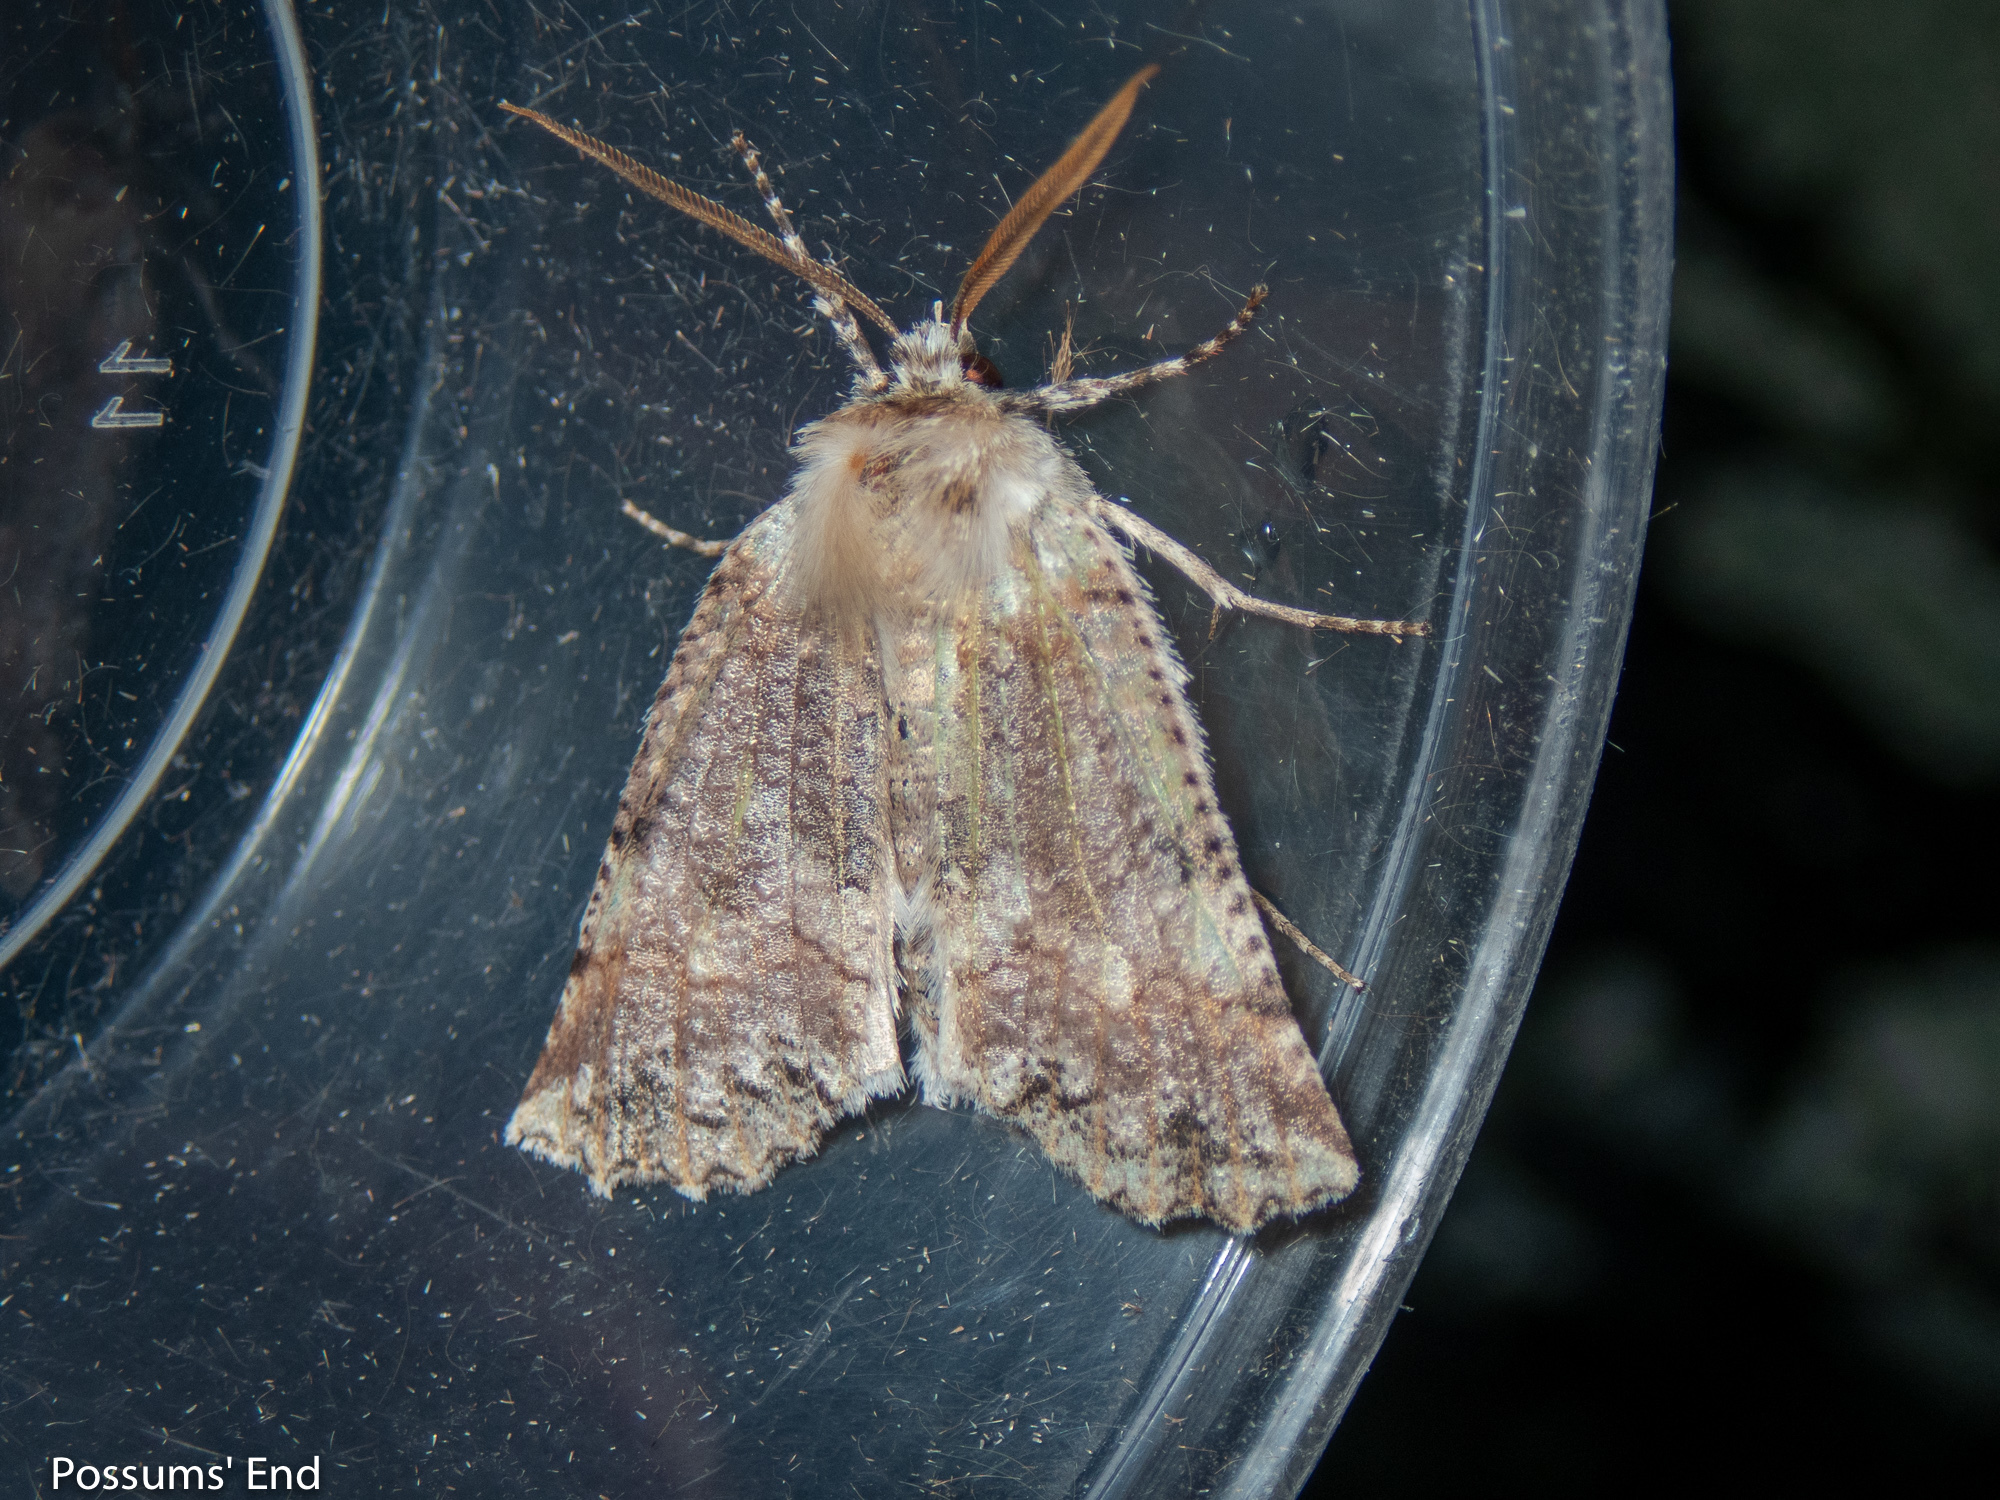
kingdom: Animalia
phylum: Arthropoda
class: Insecta
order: Lepidoptera
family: Geometridae
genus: Declana
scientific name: Declana floccosa
